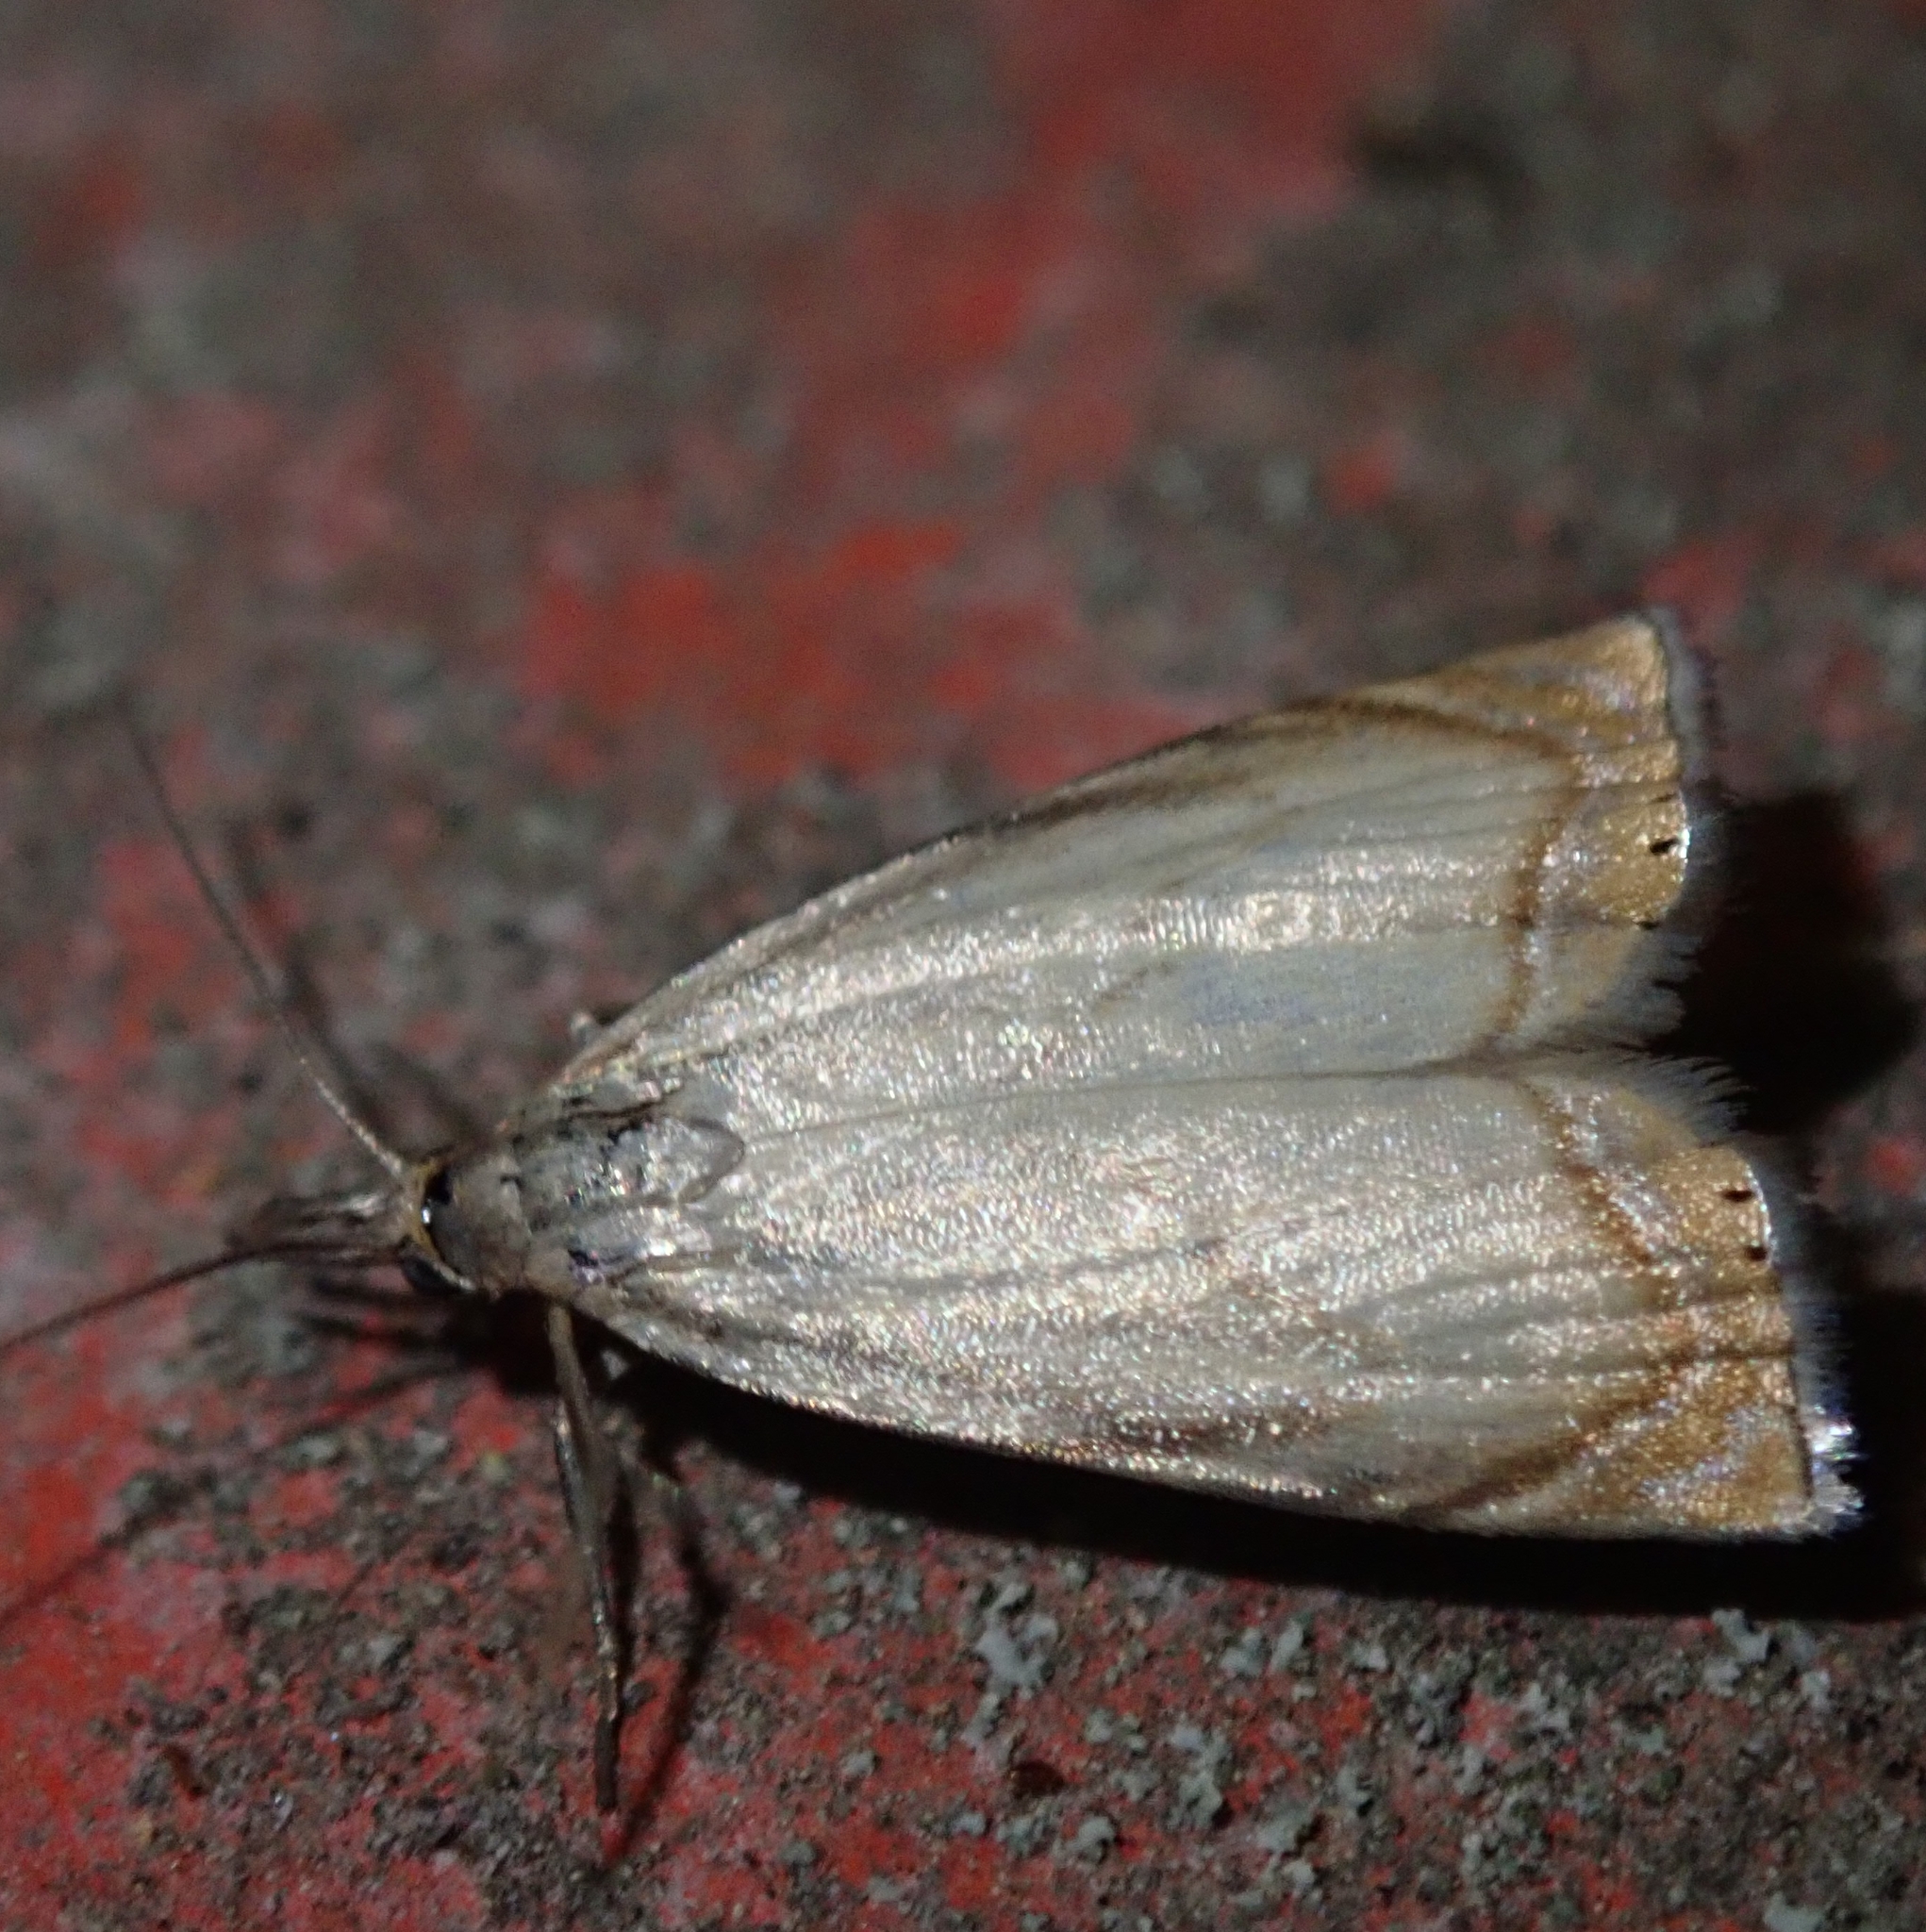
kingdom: Animalia
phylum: Arthropoda
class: Insecta
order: Lepidoptera
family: Crambidae
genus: Chrysoteuchia
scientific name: Chrysoteuchia culmella
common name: Garden grass-veneer
